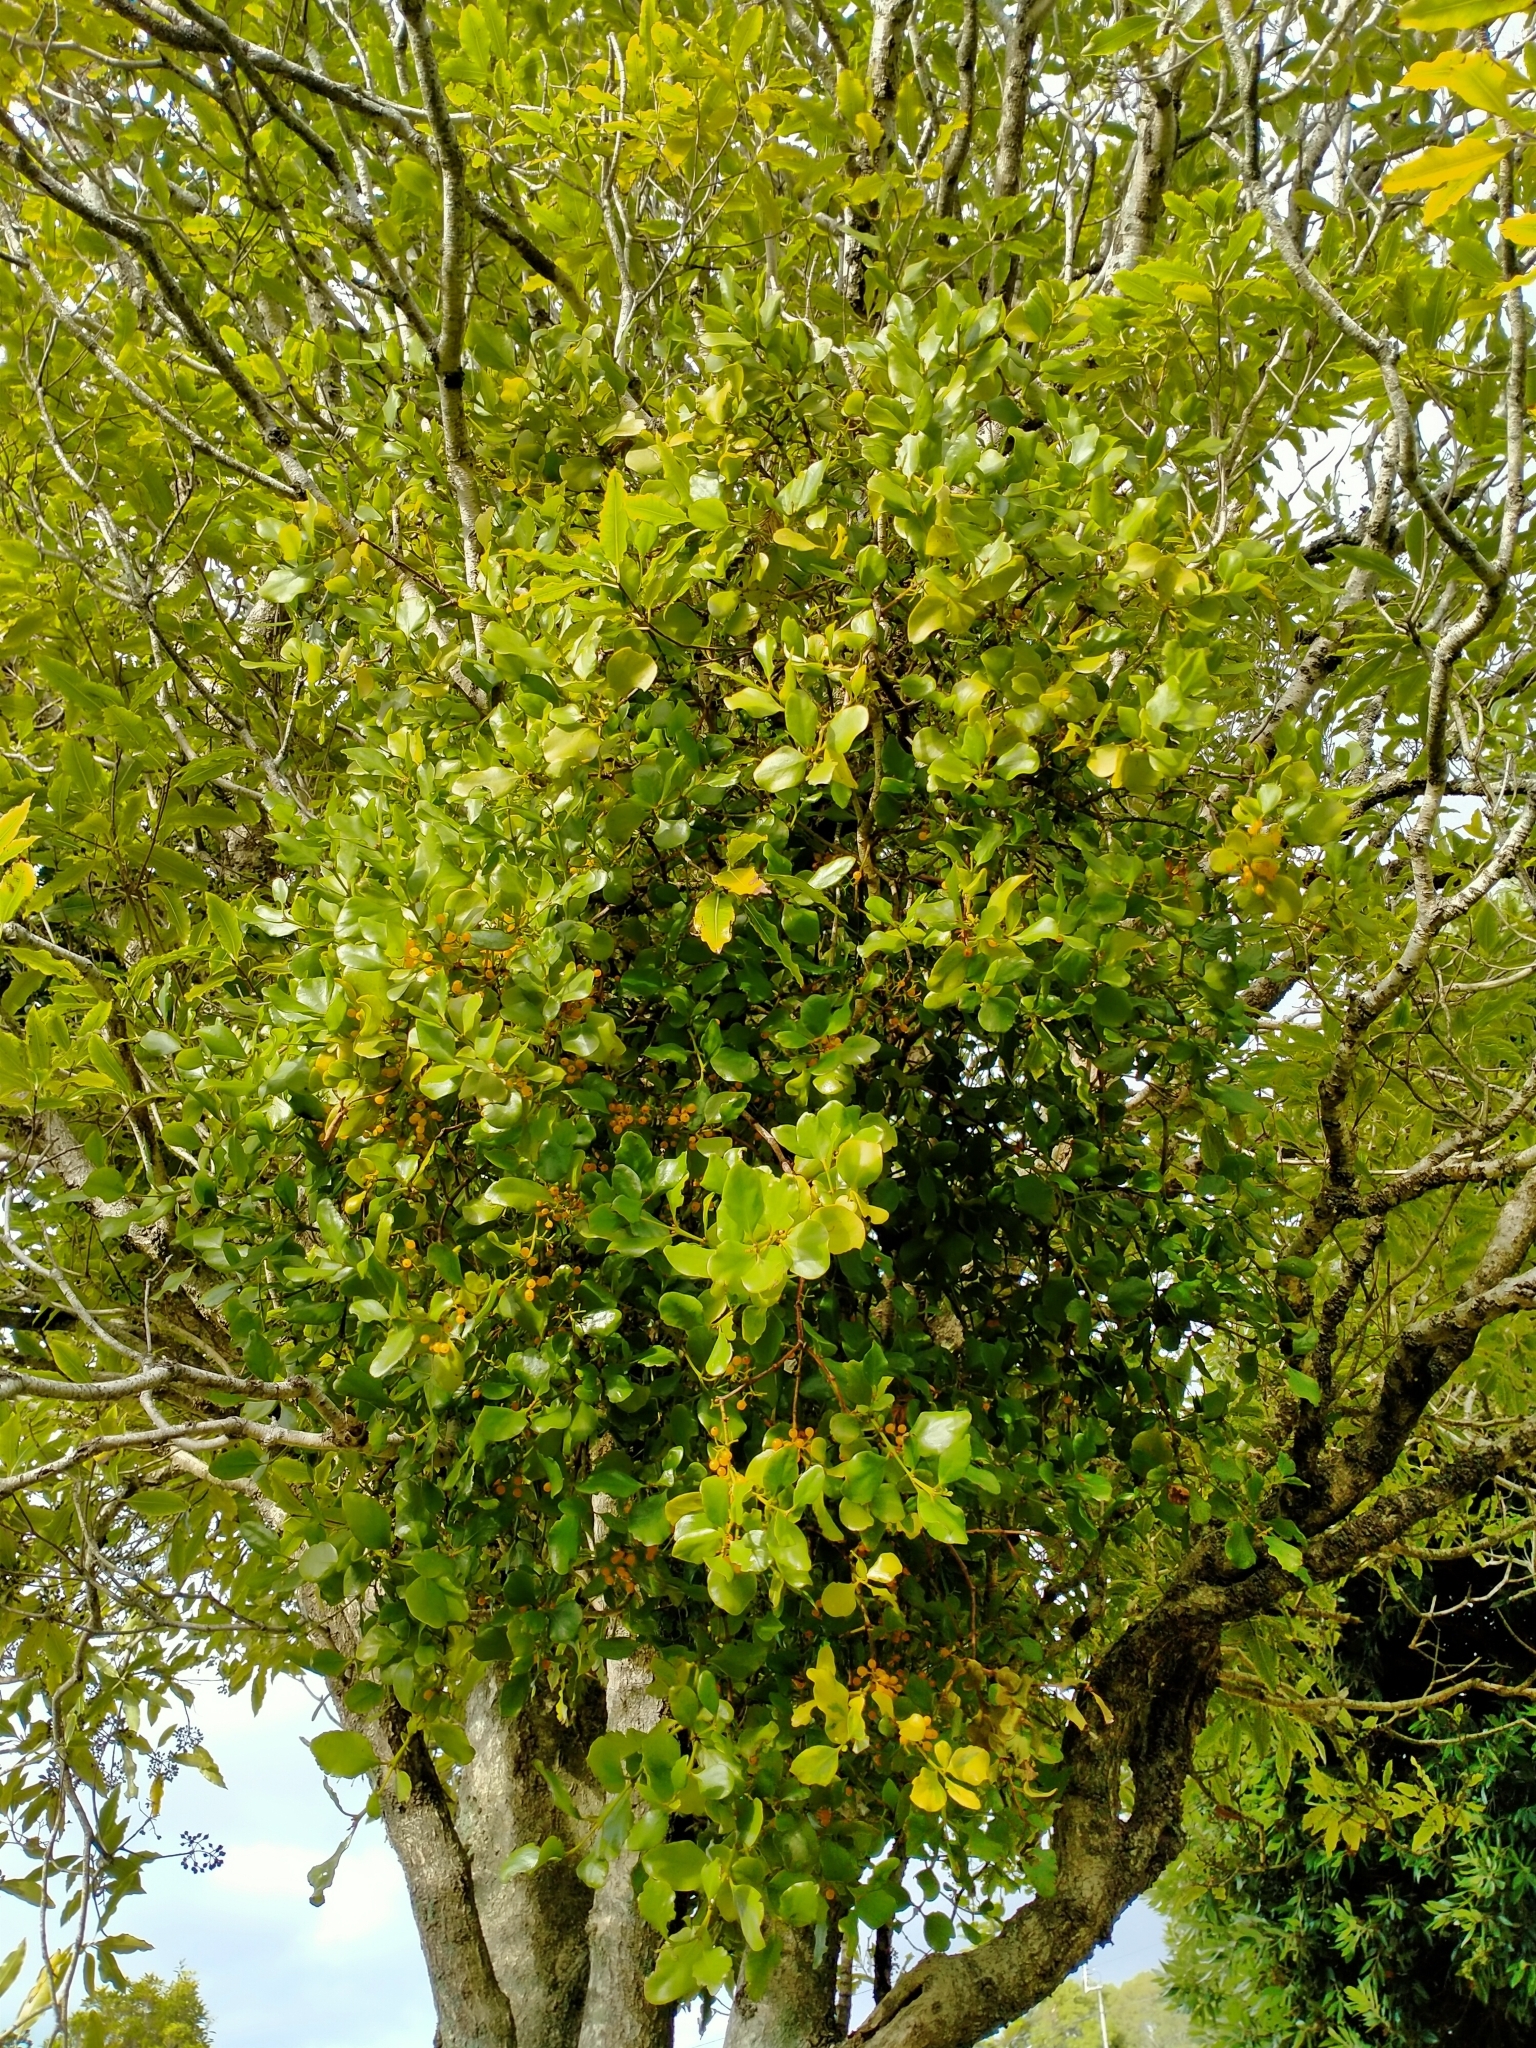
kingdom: Plantae
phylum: Tracheophyta
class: Magnoliopsida
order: Santalales
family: Loranthaceae
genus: Ileostylus
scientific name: Ileostylus micranthus
